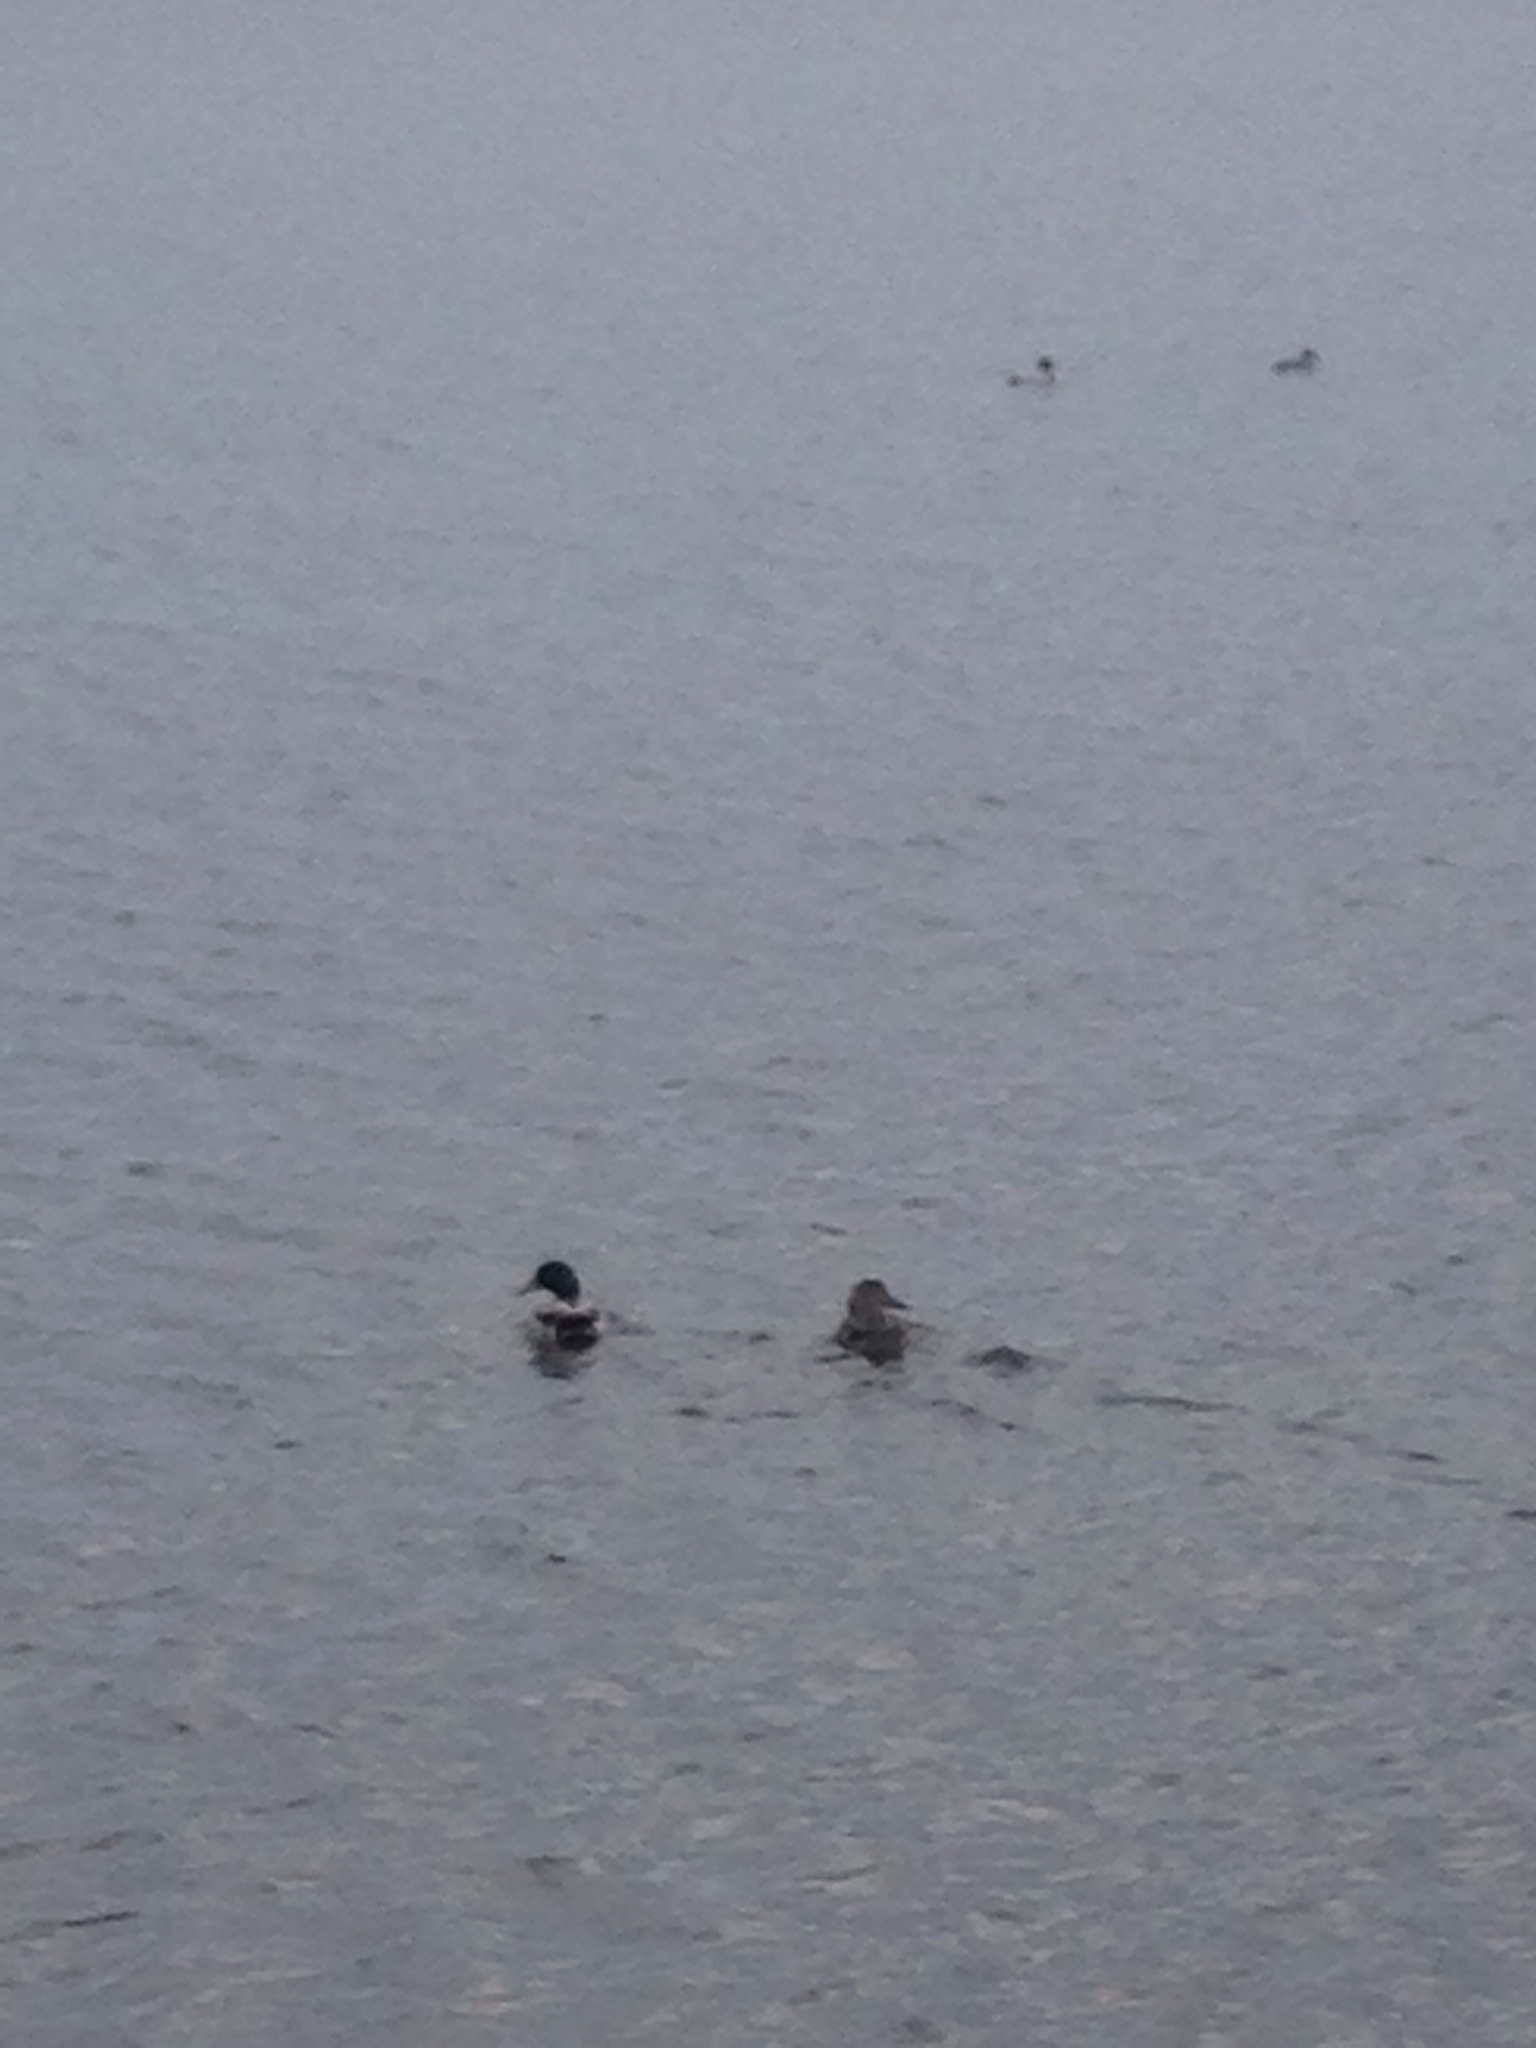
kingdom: Animalia
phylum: Chordata
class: Aves
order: Anseriformes
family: Anatidae
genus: Anas
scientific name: Anas platyrhynchos
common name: Mallard
